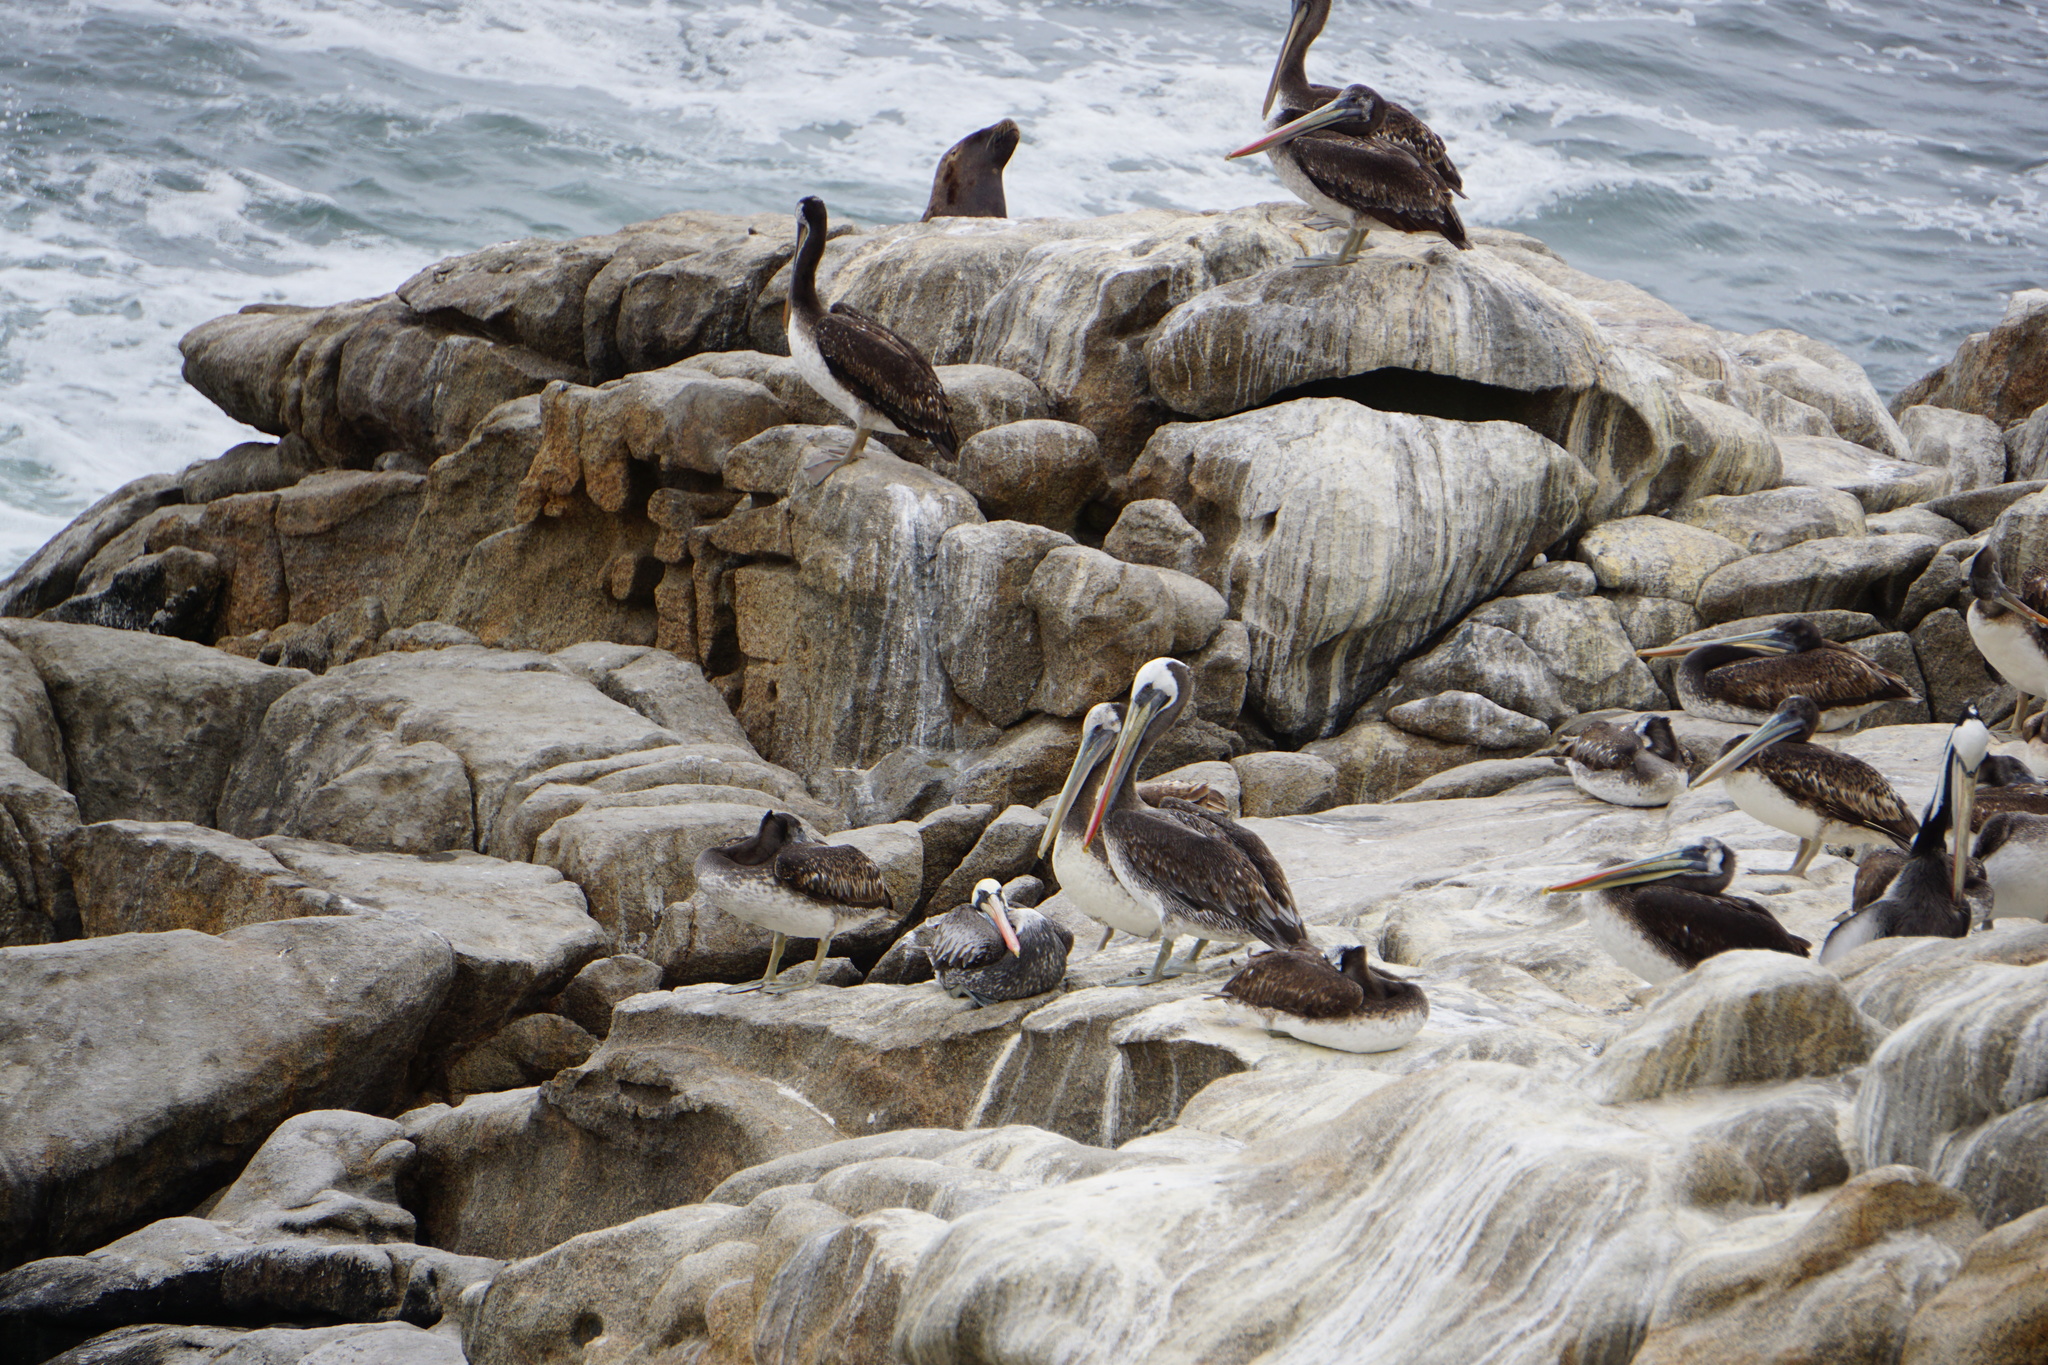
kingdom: Animalia
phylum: Chordata
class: Aves
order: Pelecaniformes
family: Pelecanidae
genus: Pelecanus
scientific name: Pelecanus thagus
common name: Peruvian pelican
